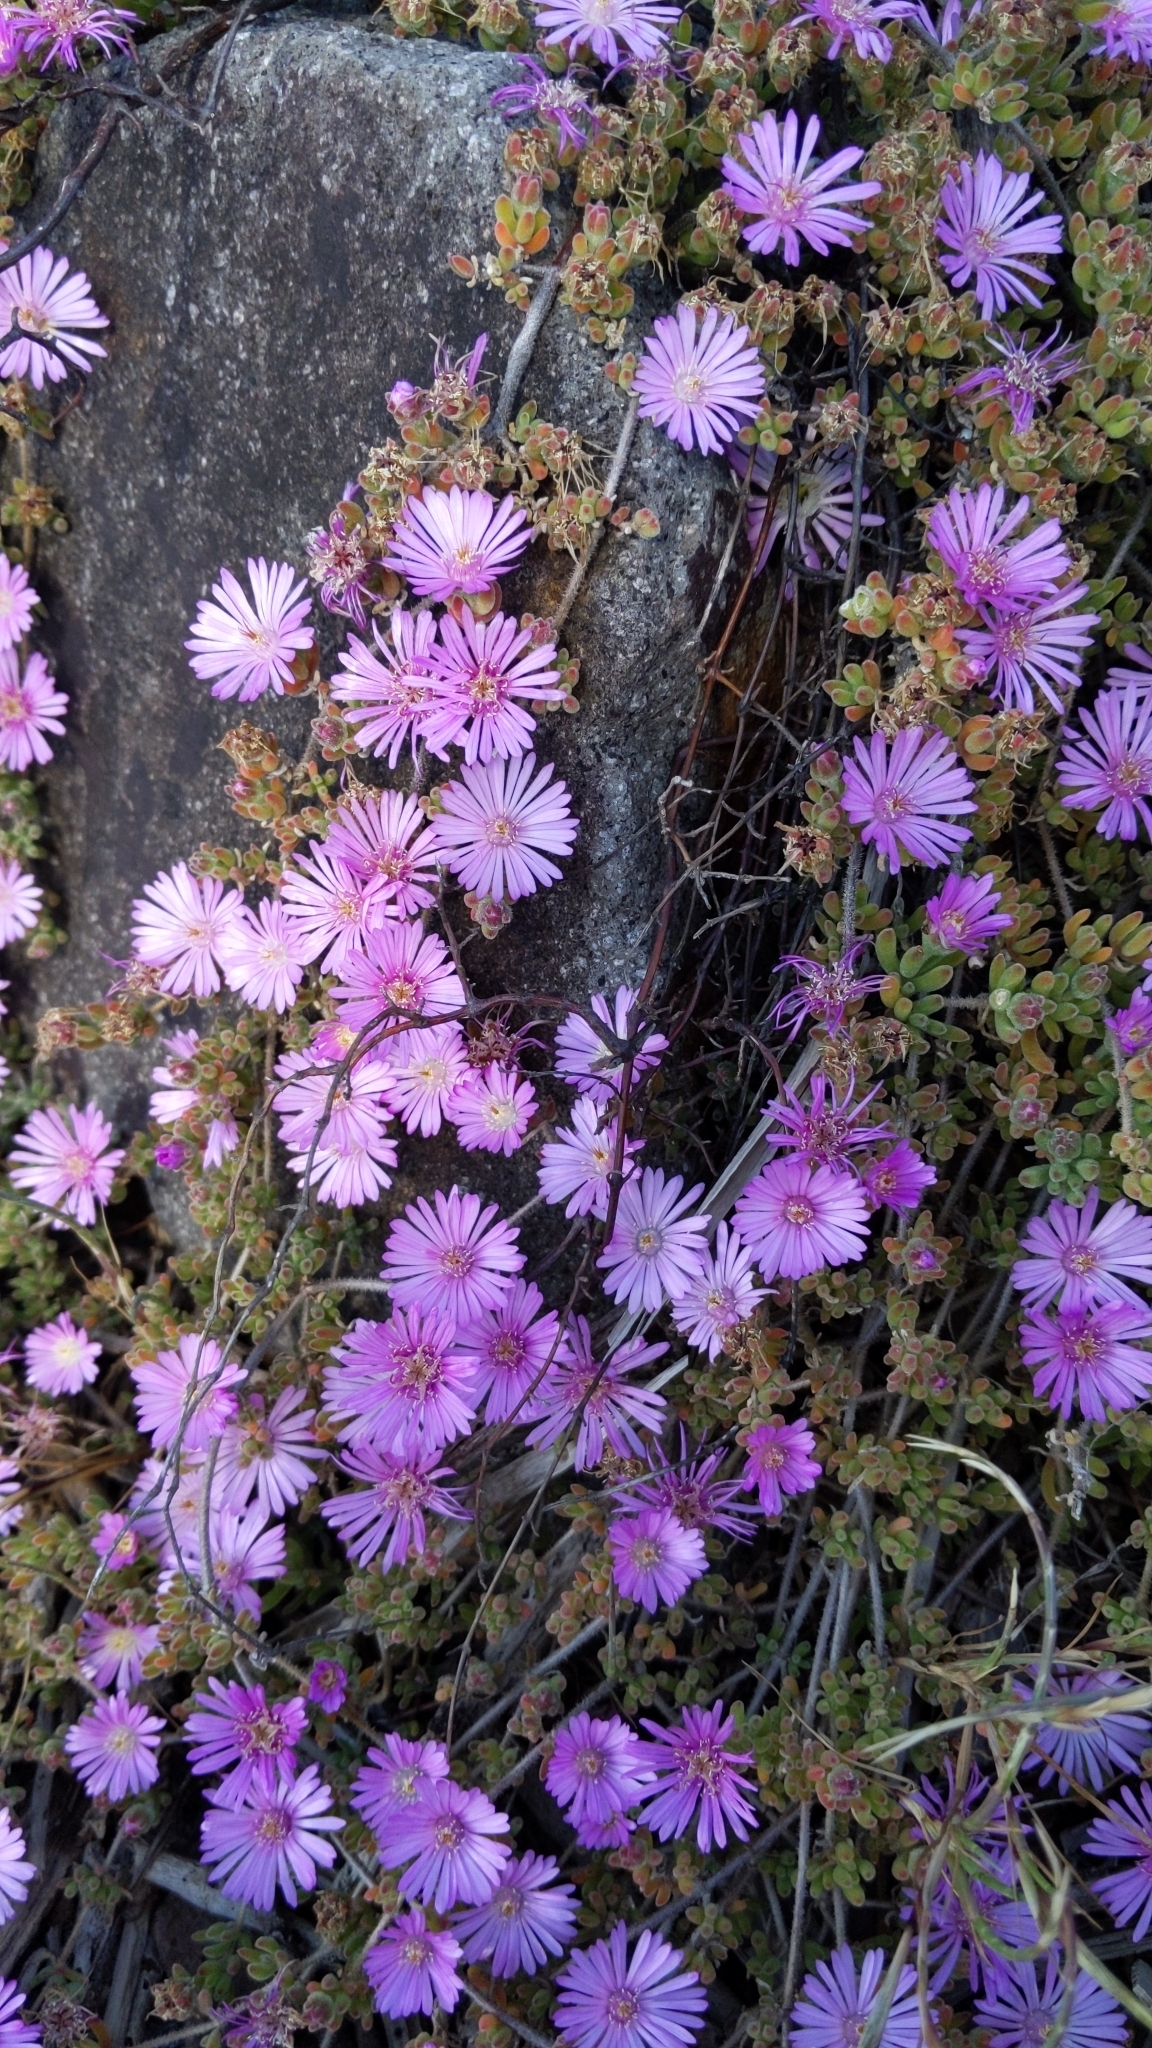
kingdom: Plantae
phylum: Tracheophyta
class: Magnoliopsida
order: Caryophyllales
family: Aizoaceae
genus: Drosanthemum
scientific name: Drosanthemum floribundum
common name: Pale dewplant
